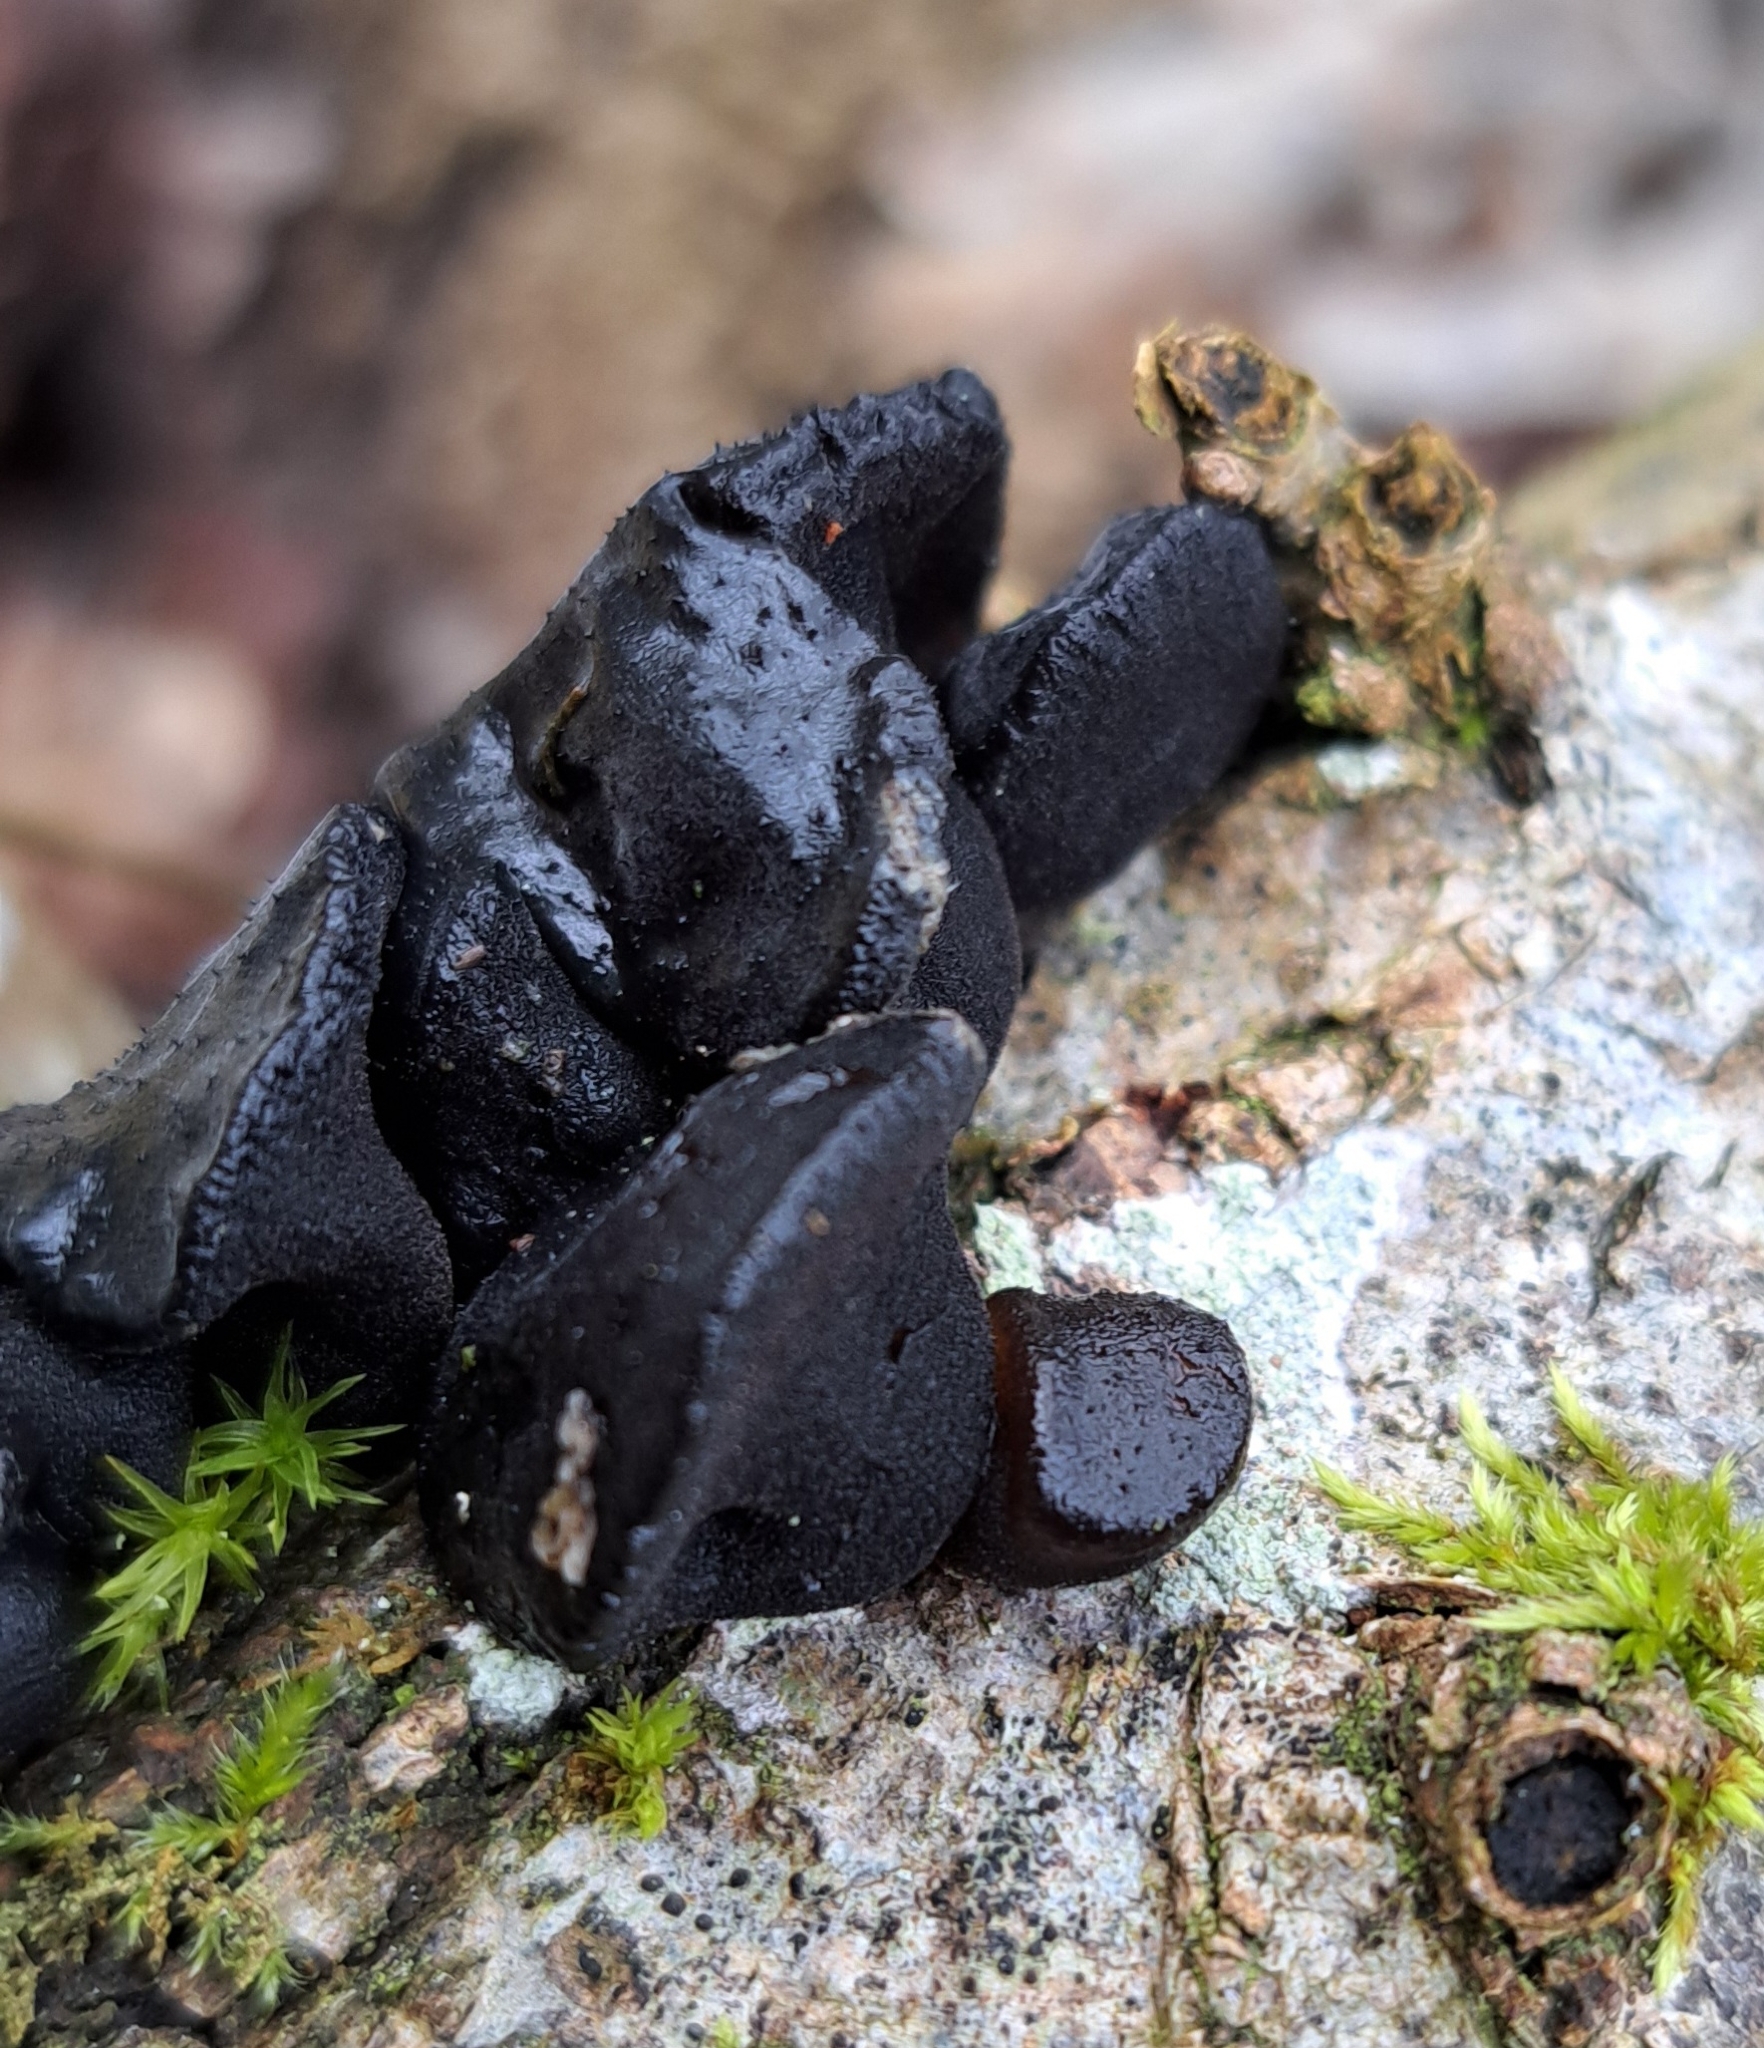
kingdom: Fungi
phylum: Basidiomycota
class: Agaricomycetes
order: Auriculariales
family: Auriculariaceae
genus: Exidia
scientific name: Exidia glandulosa
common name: Witches' butter
